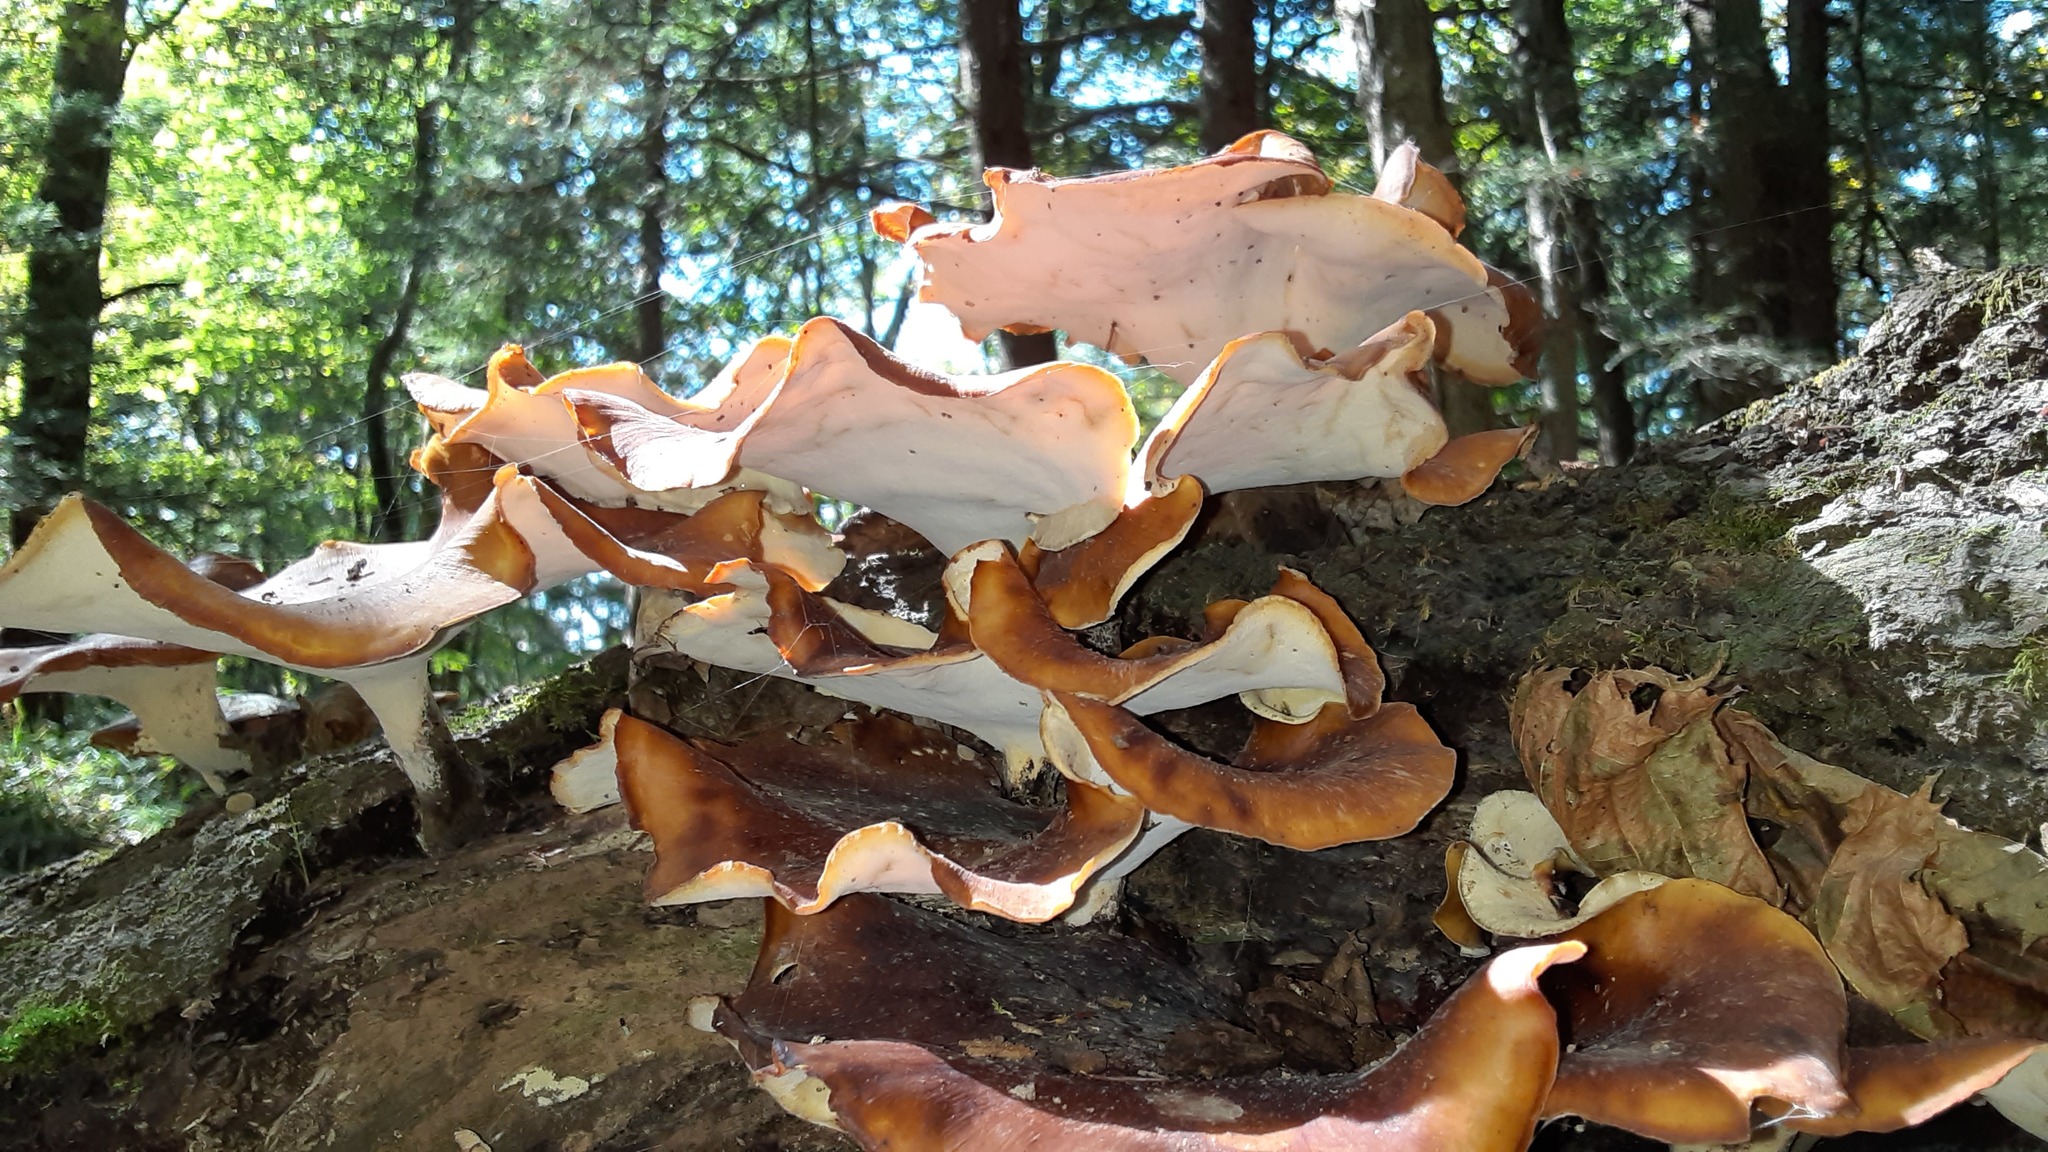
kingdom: Fungi
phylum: Basidiomycota
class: Agaricomycetes
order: Polyporales
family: Polyporaceae
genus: Picipes
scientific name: Picipes badius
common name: Bay polypore
